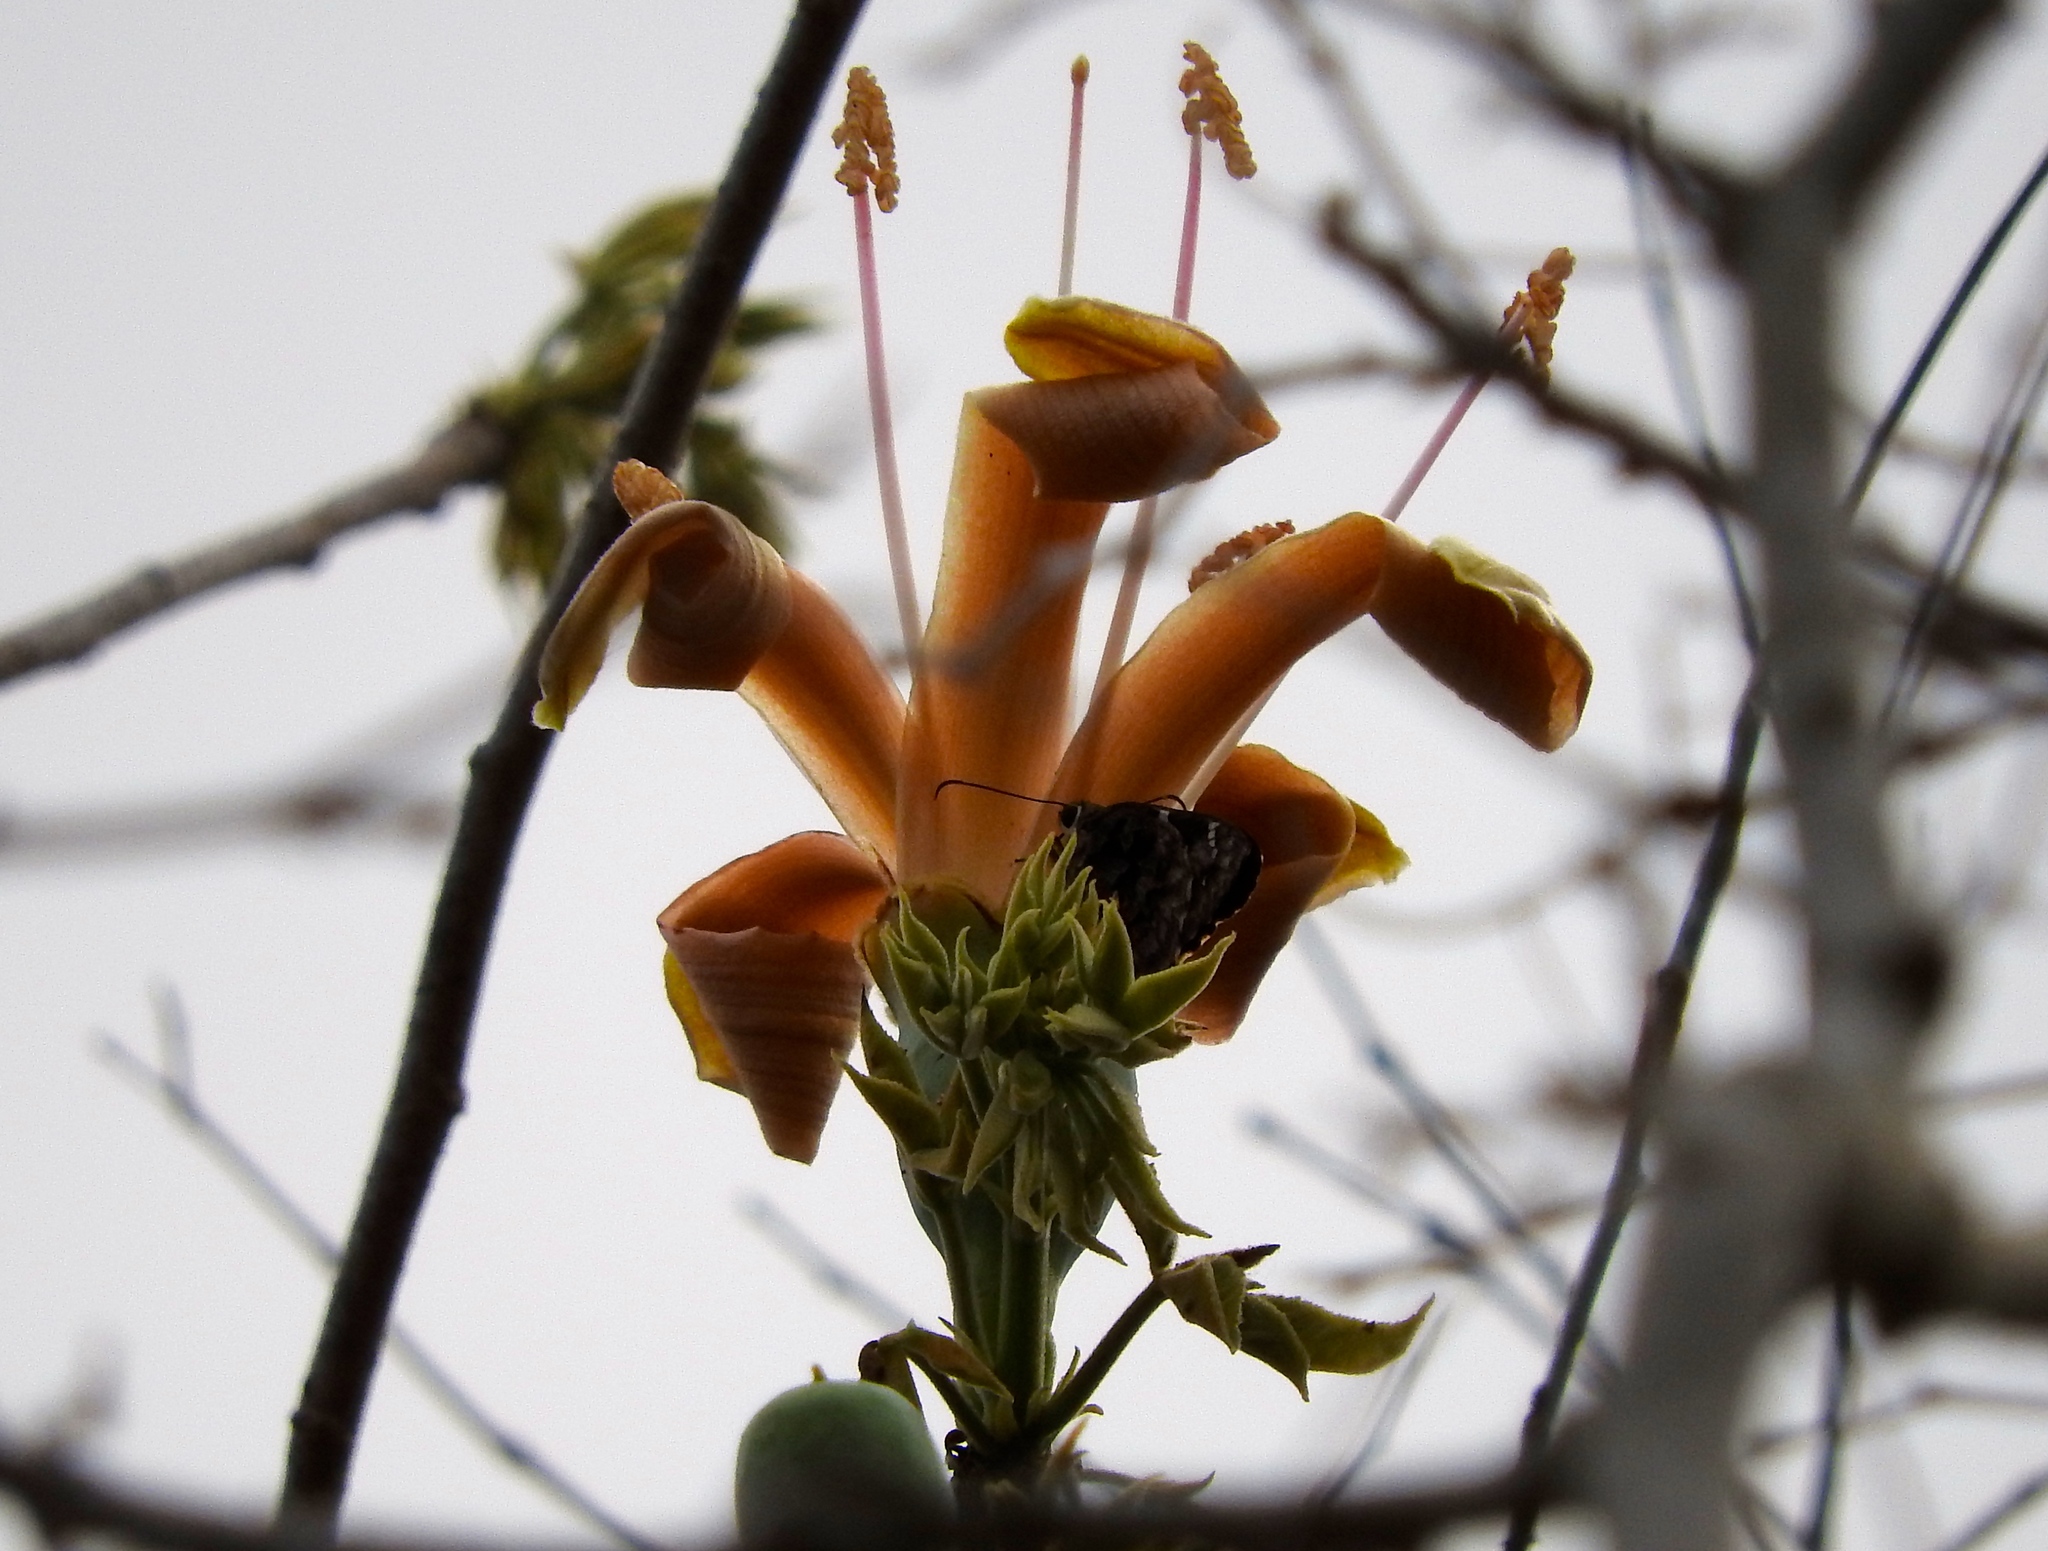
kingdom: Plantae
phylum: Tracheophyta
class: Magnoliopsida
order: Malvales
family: Malvaceae
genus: Ceiba
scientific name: Ceiba aesculifolia
